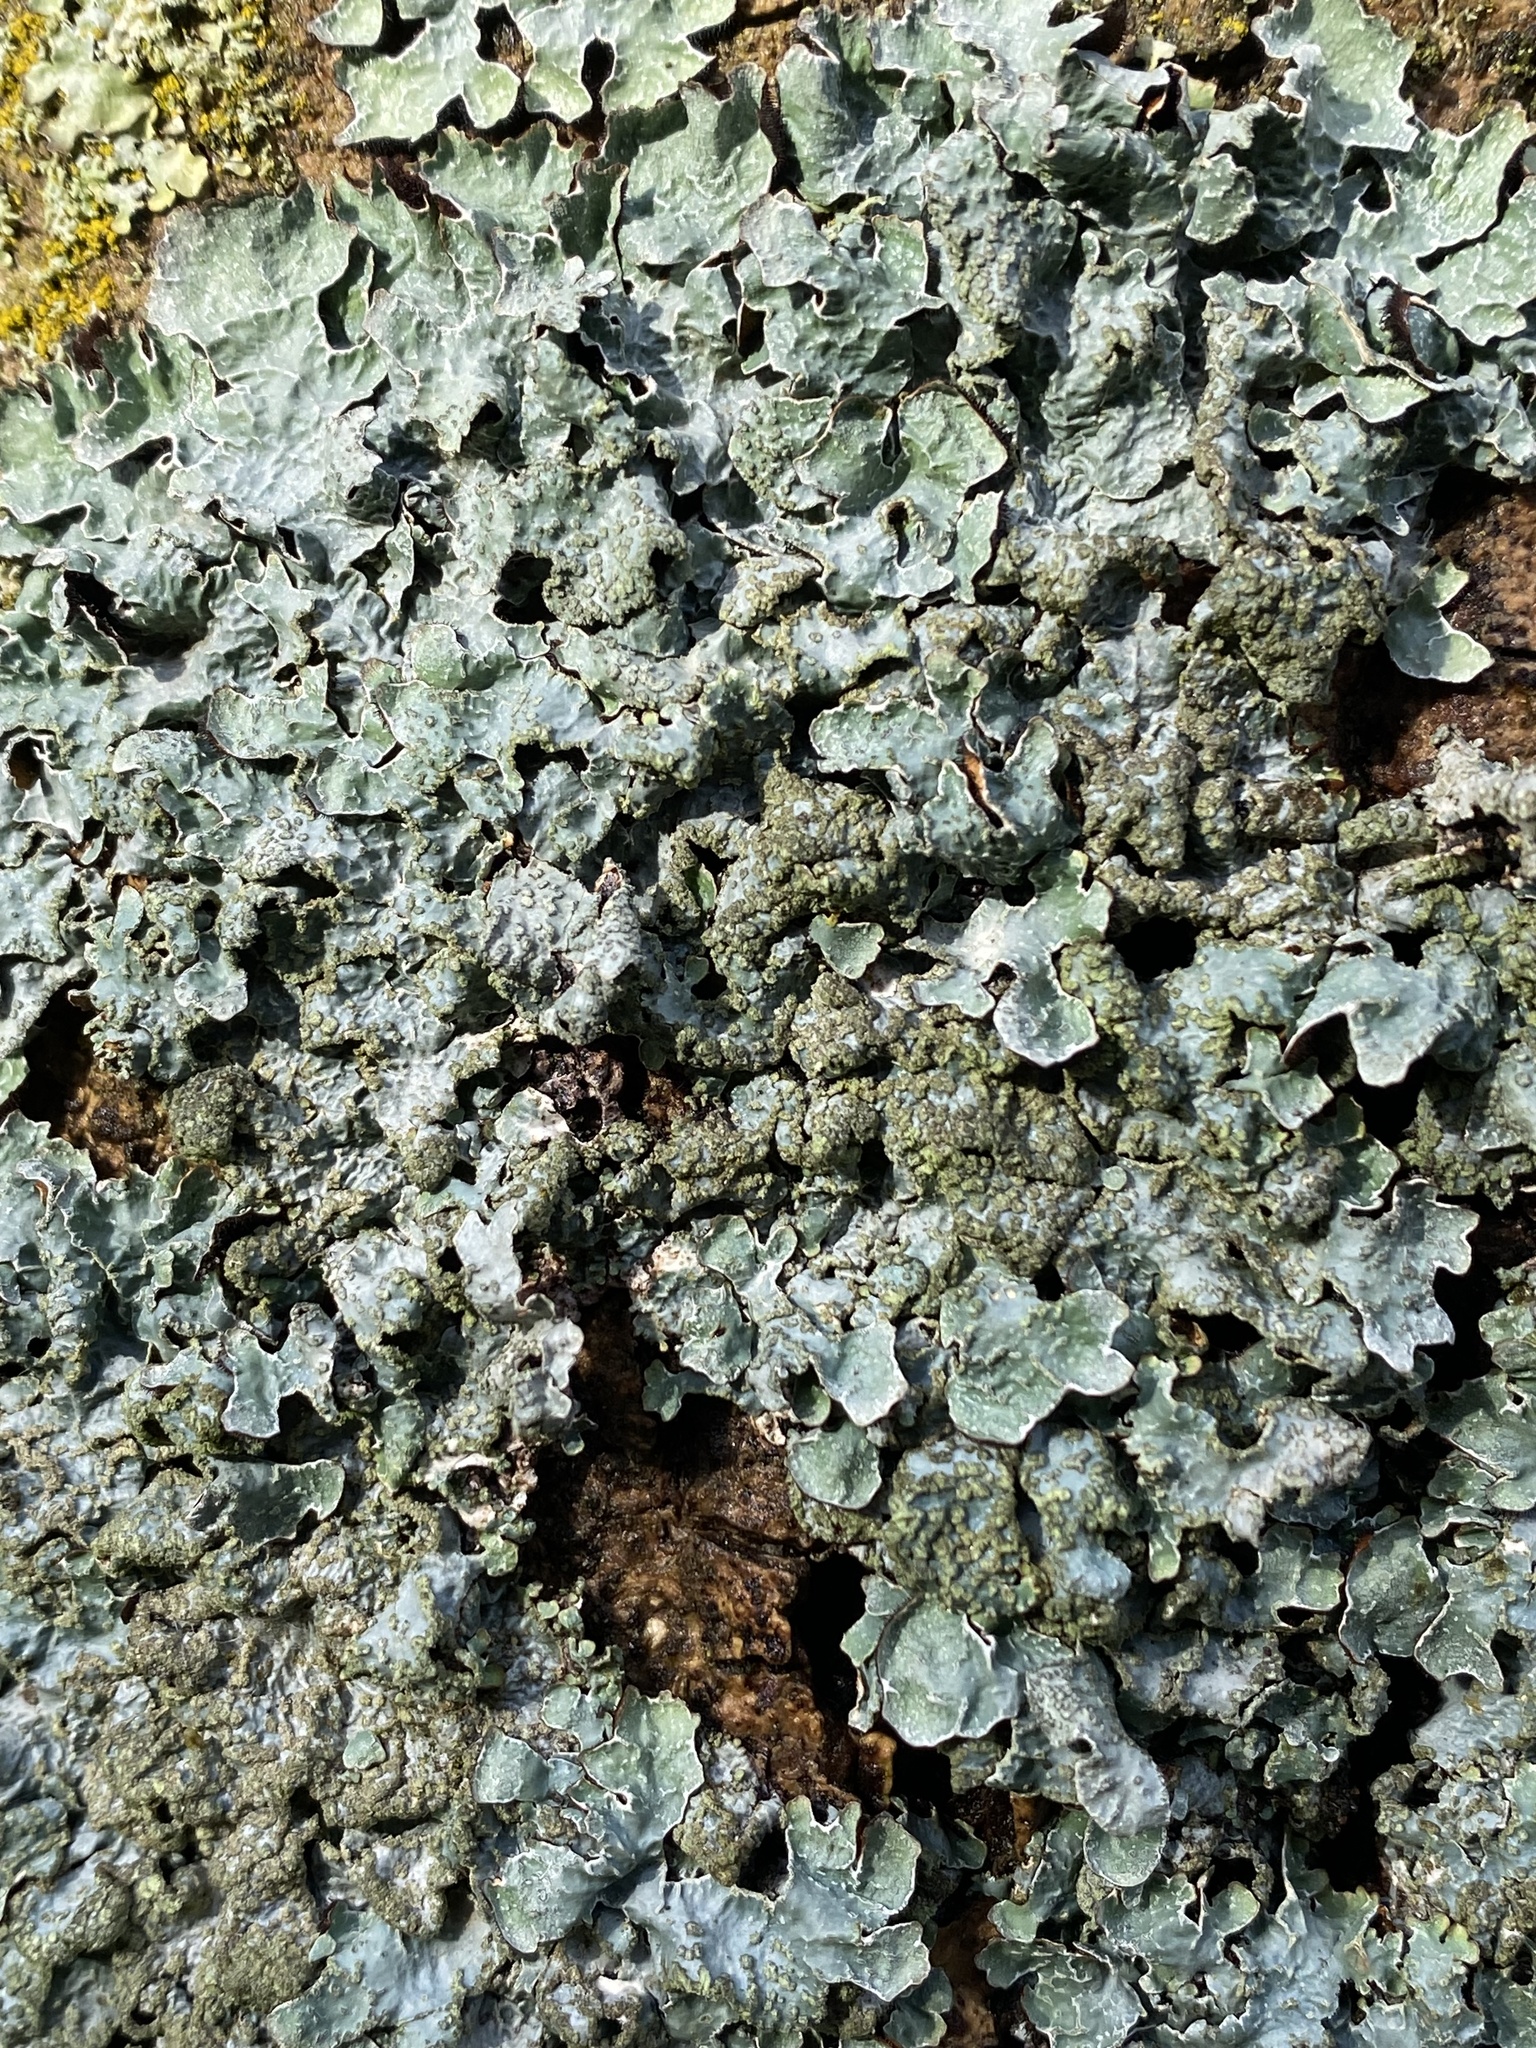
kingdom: Fungi
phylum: Ascomycota
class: Lecanoromycetes
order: Lecanorales
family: Parmeliaceae
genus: Parmelia
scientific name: Parmelia sulcata
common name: Netted shield lichen
